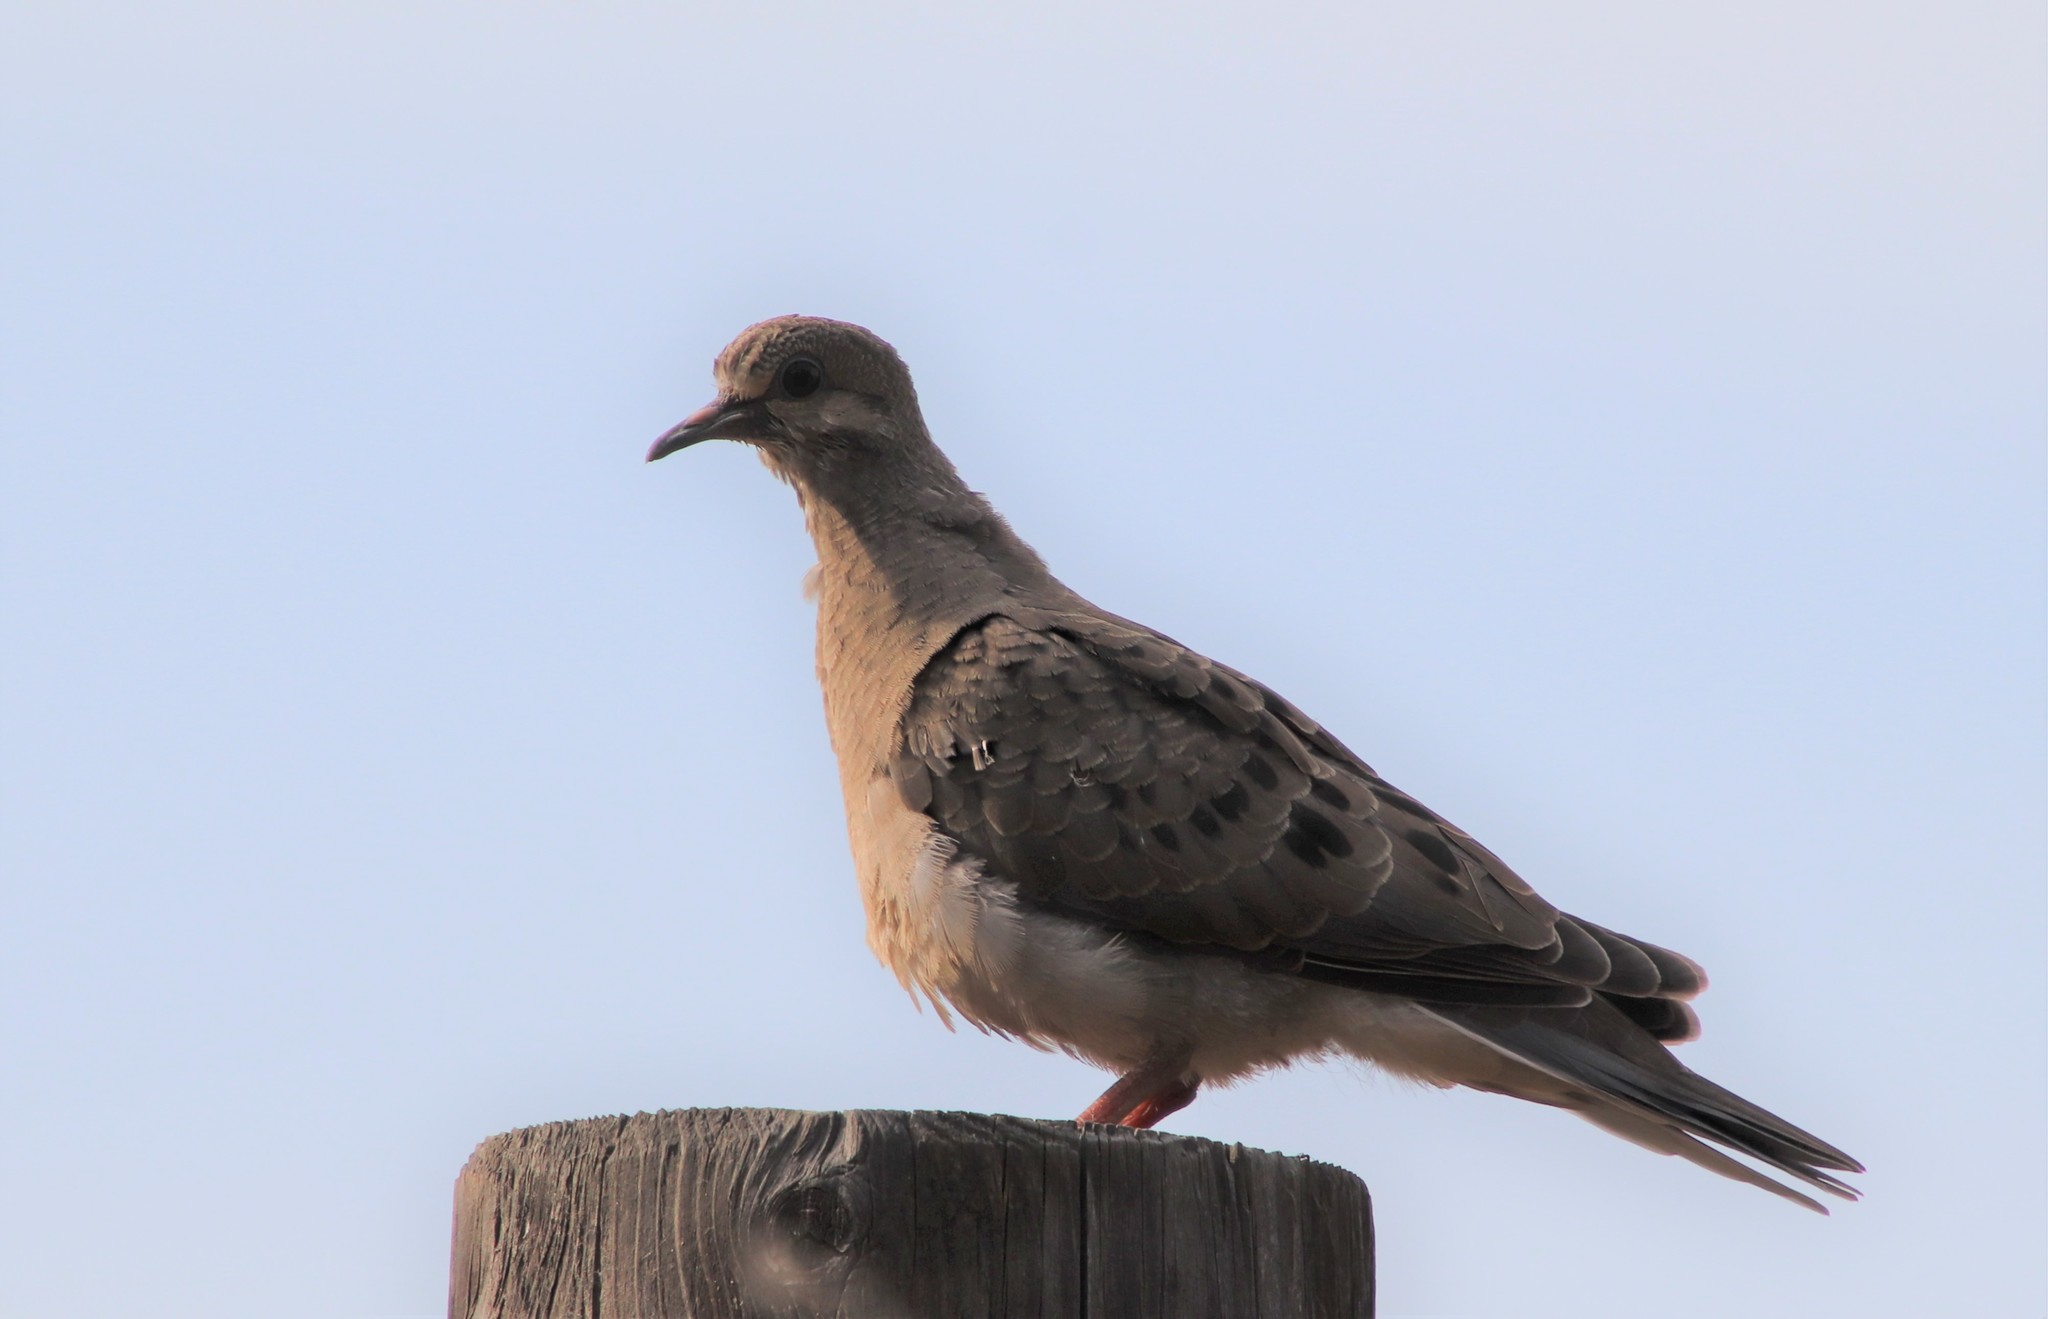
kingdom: Animalia
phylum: Chordata
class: Aves
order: Columbiformes
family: Columbidae
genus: Zenaida
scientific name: Zenaida macroura
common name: Mourning dove
